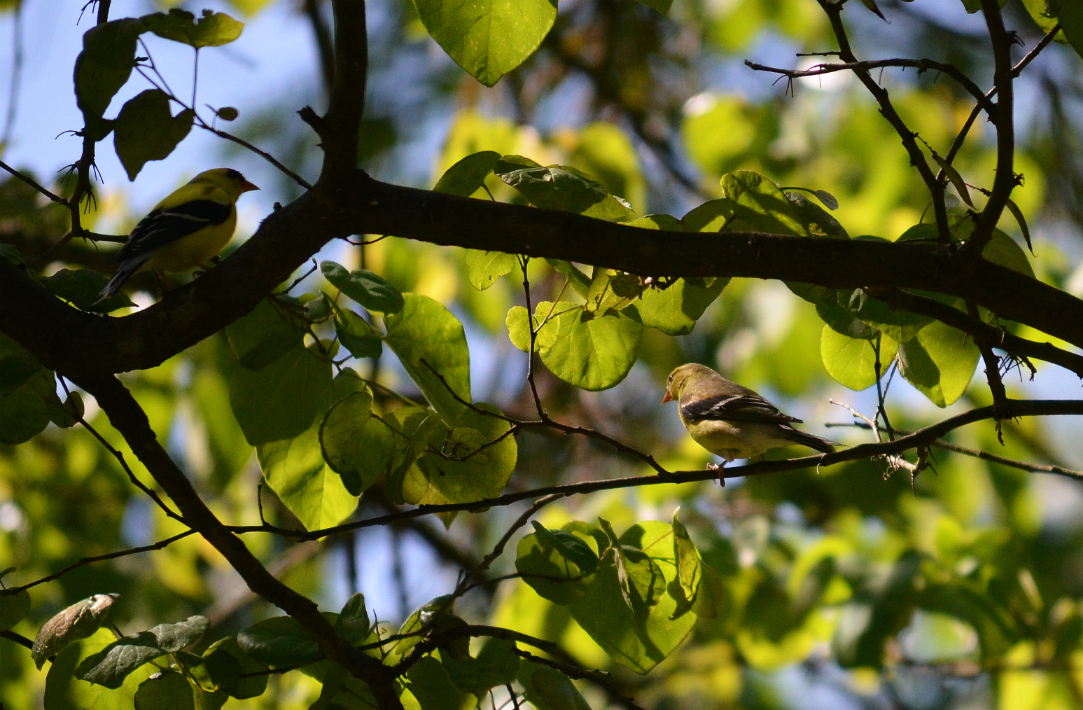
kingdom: Animalia
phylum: Chordata
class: Aves
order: Passeriformes
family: Fringillidae
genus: Spinus
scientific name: Spinus tristis
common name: American goldfinch
